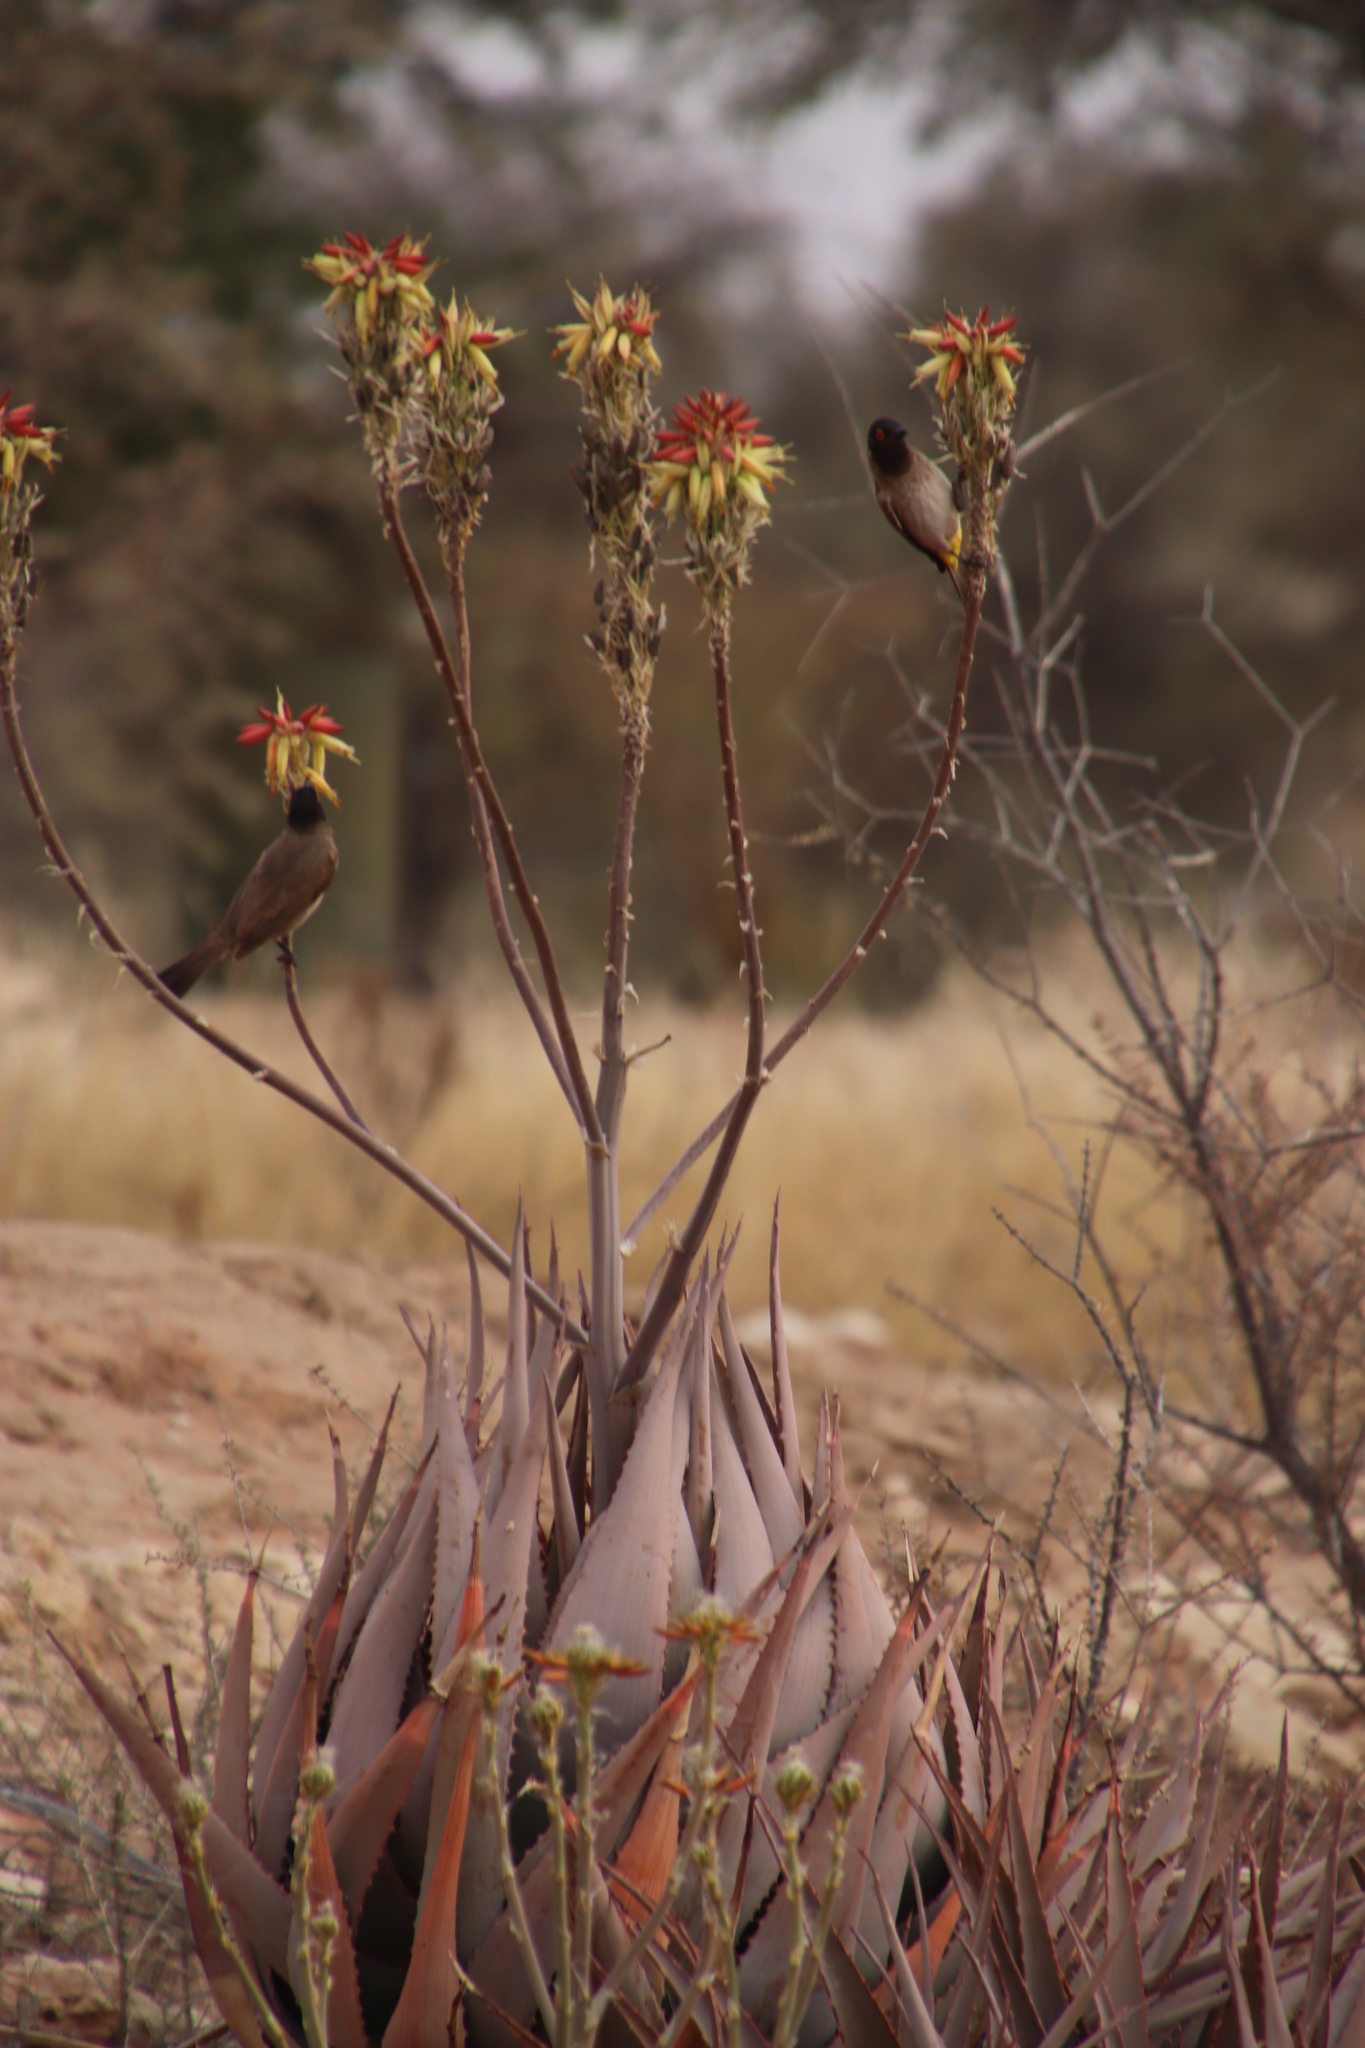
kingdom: Plantae
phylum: Tracheophyta
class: Liliopsida
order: Asparagales
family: Asphodelaceae
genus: Aloe
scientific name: Aloe hereroensis
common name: Herero aloe
